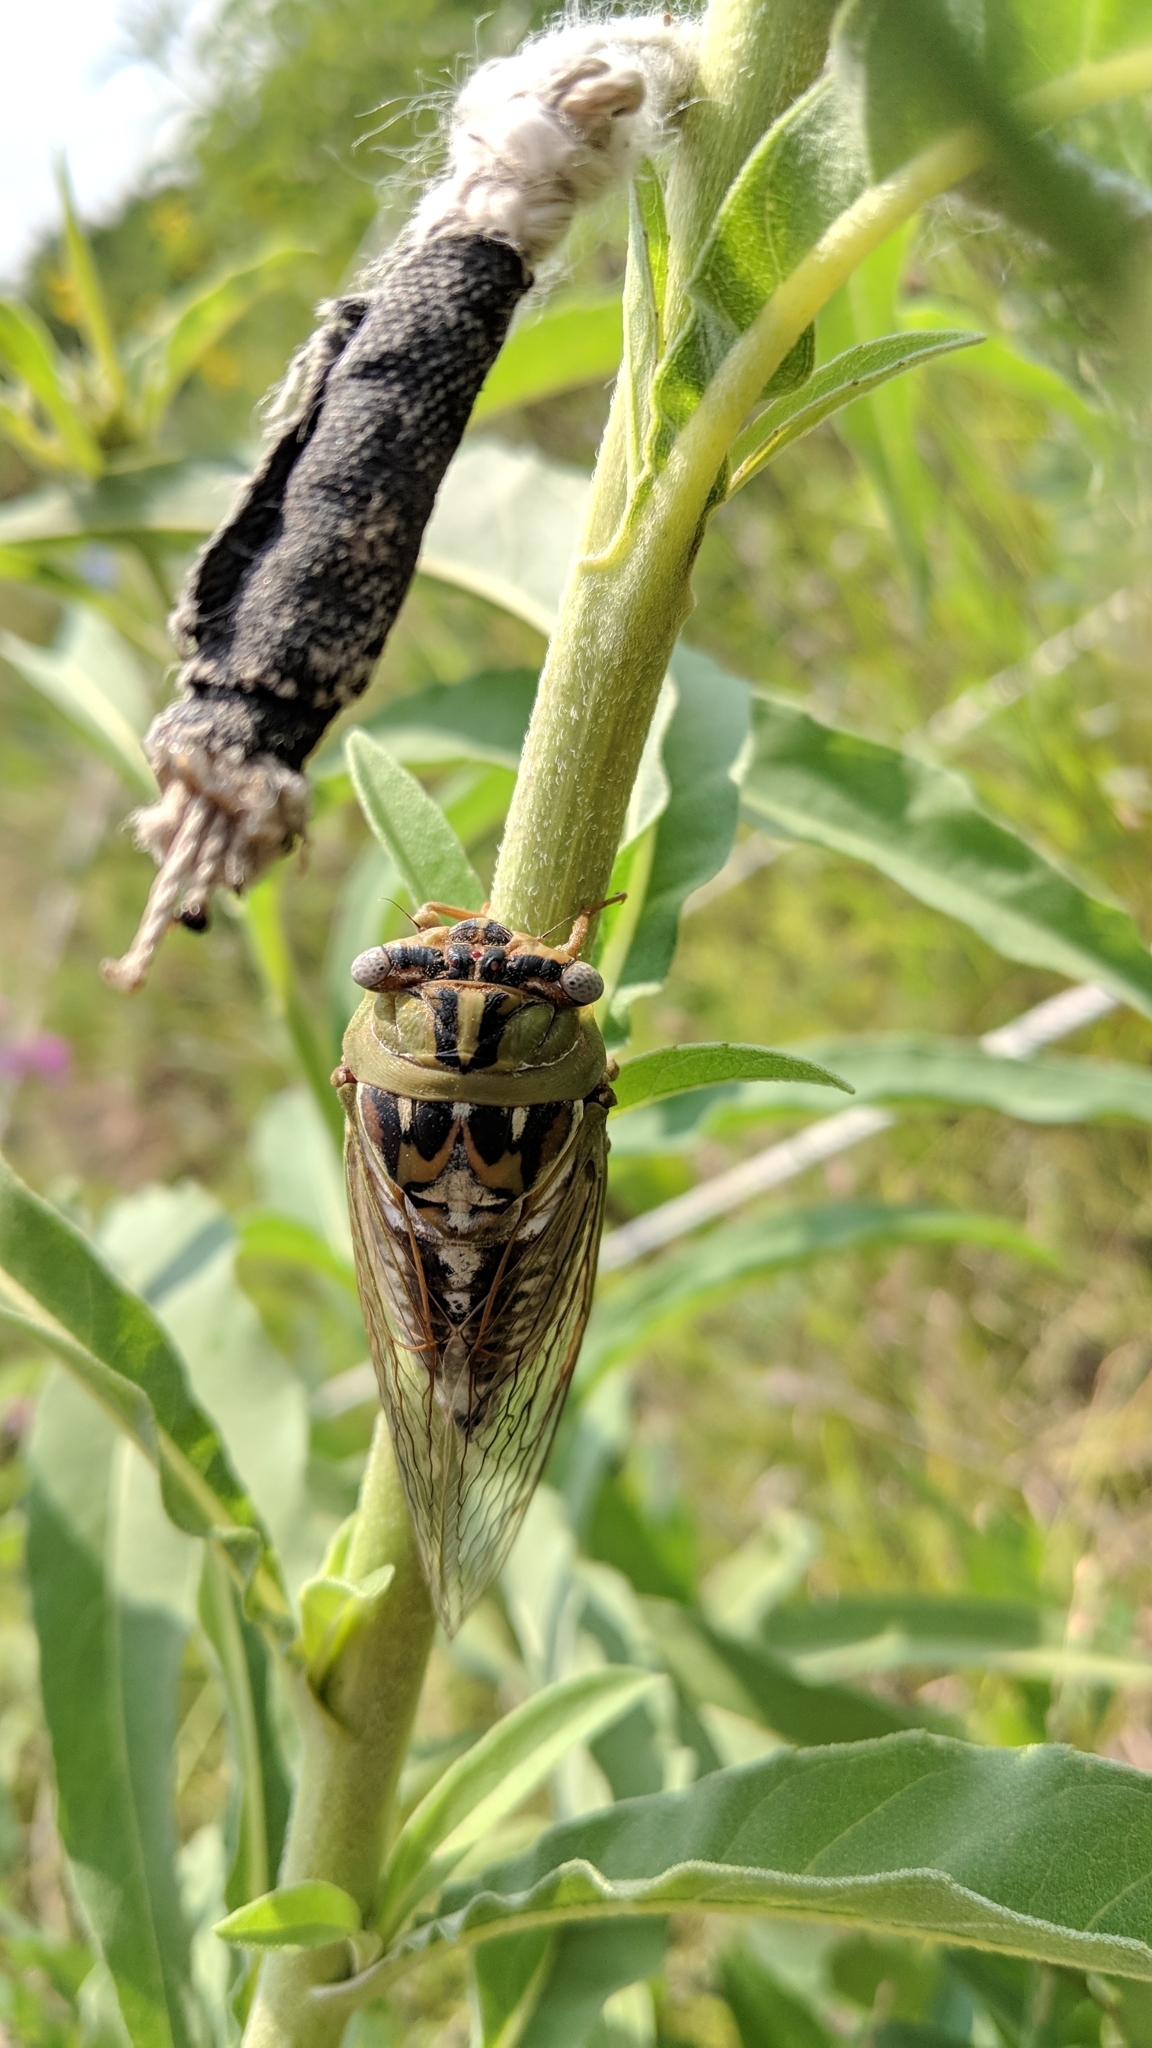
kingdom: Animalia
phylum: Arthropoda
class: Insecta
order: Hemiptera
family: Cicadidae
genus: Megatibicen
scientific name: Megatibicen dealbatus
